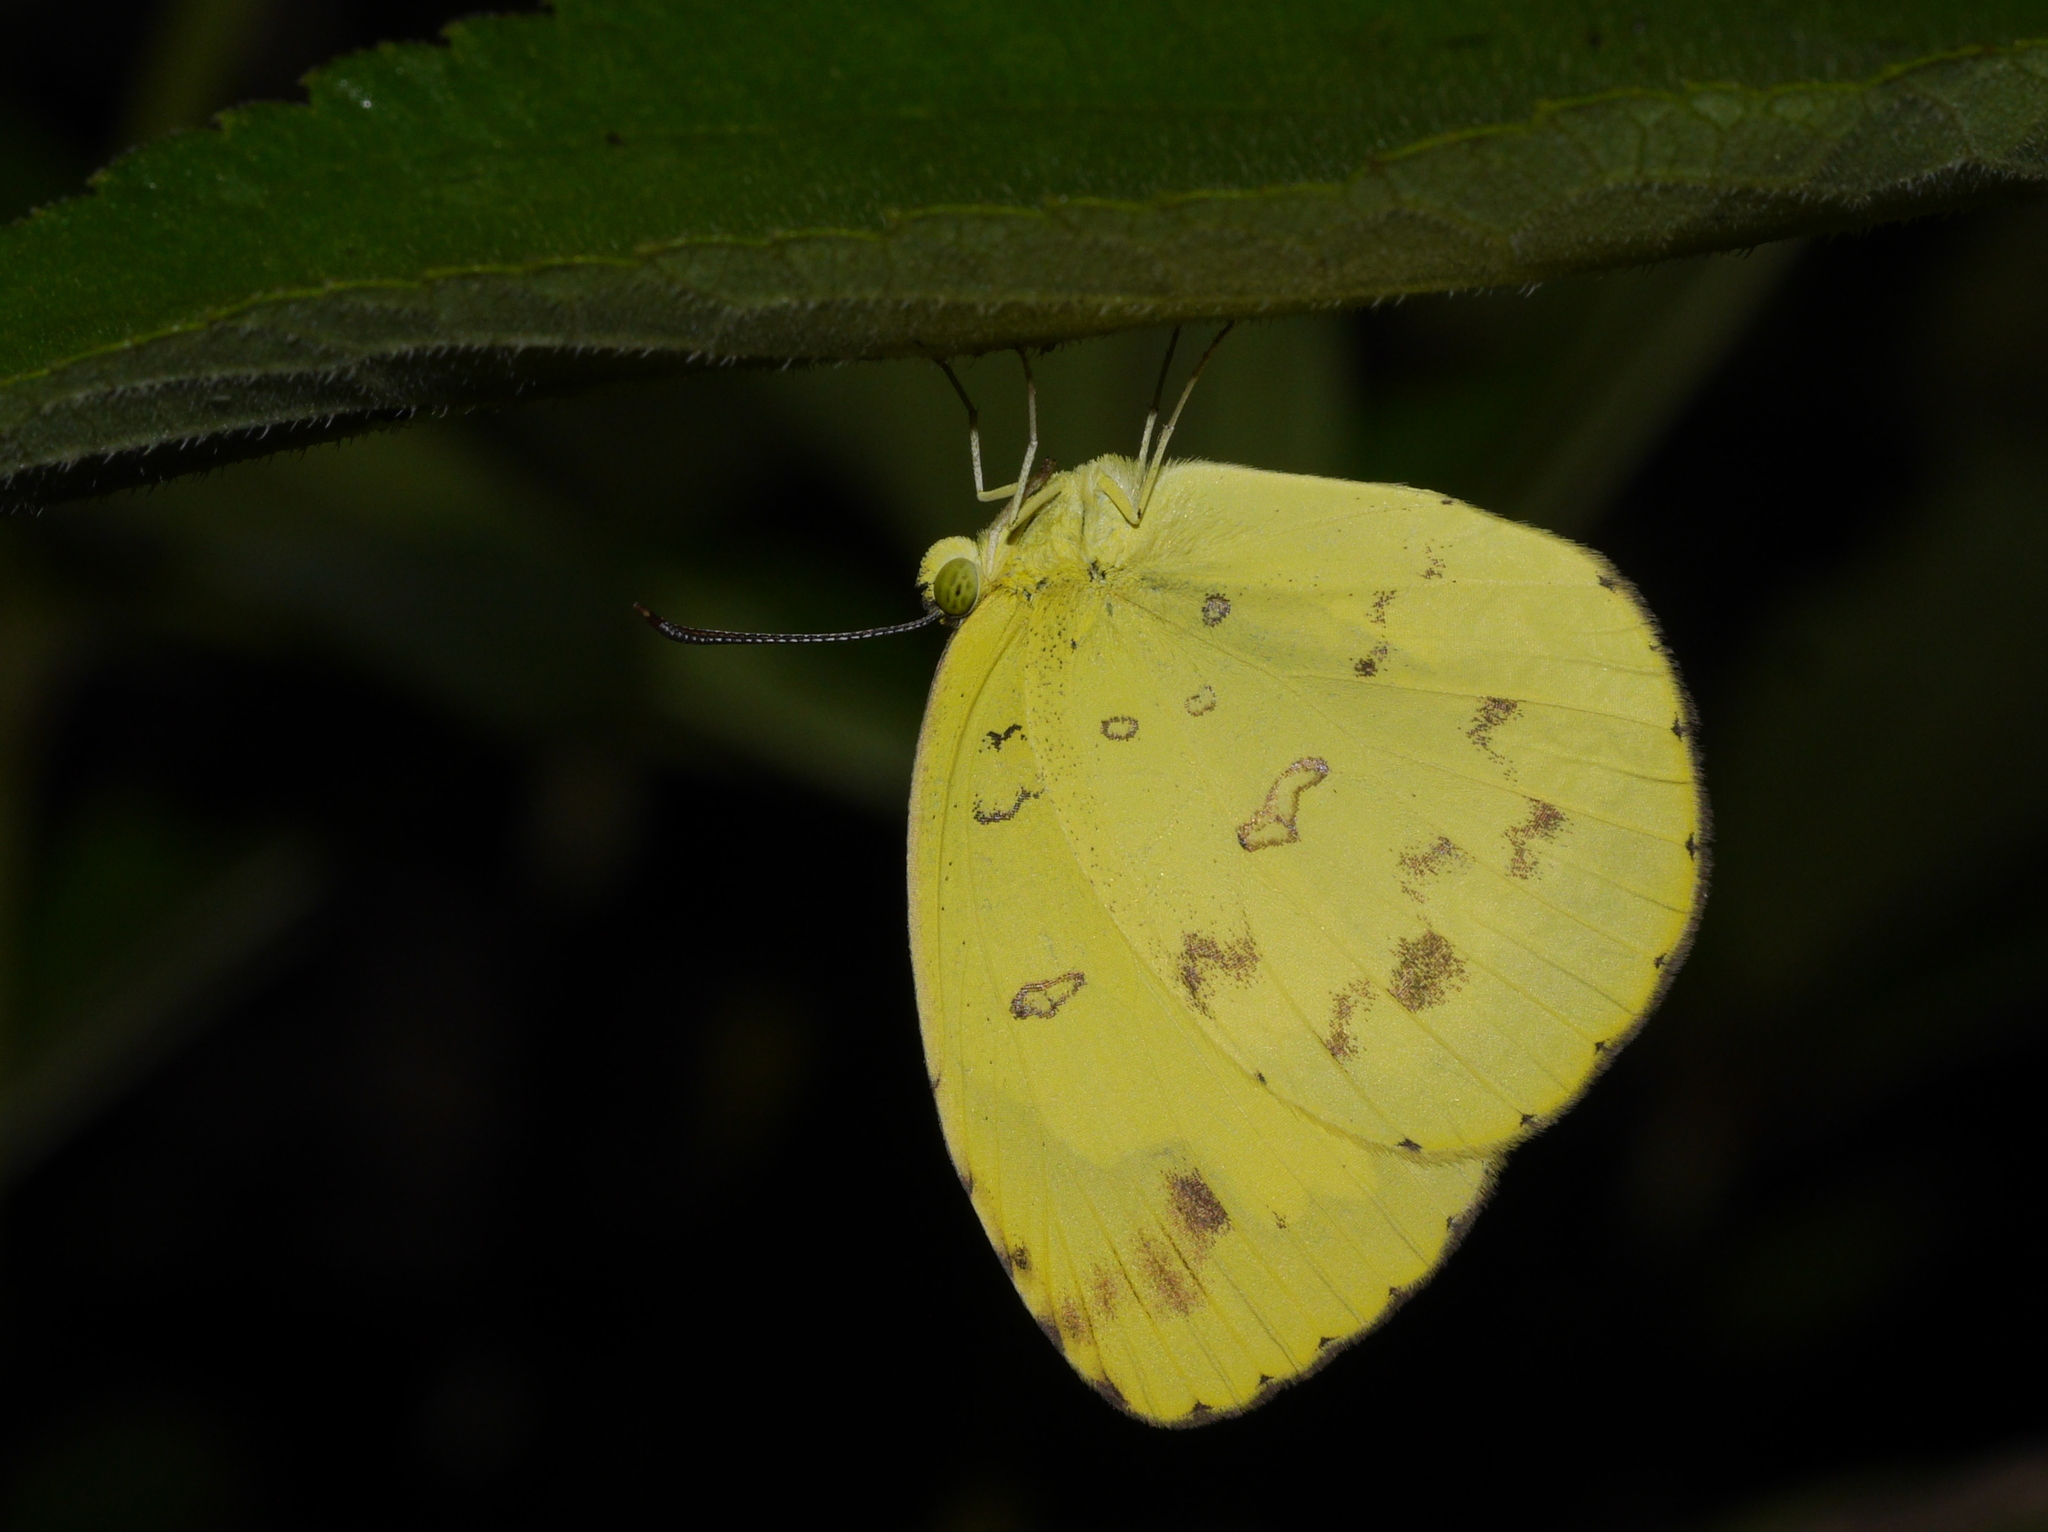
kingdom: Animalia
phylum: Arthropoda
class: Insecta
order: Lepidoptera
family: Pieridae
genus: Eurema
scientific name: Eurema hecabe
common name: Pale grass yellow
